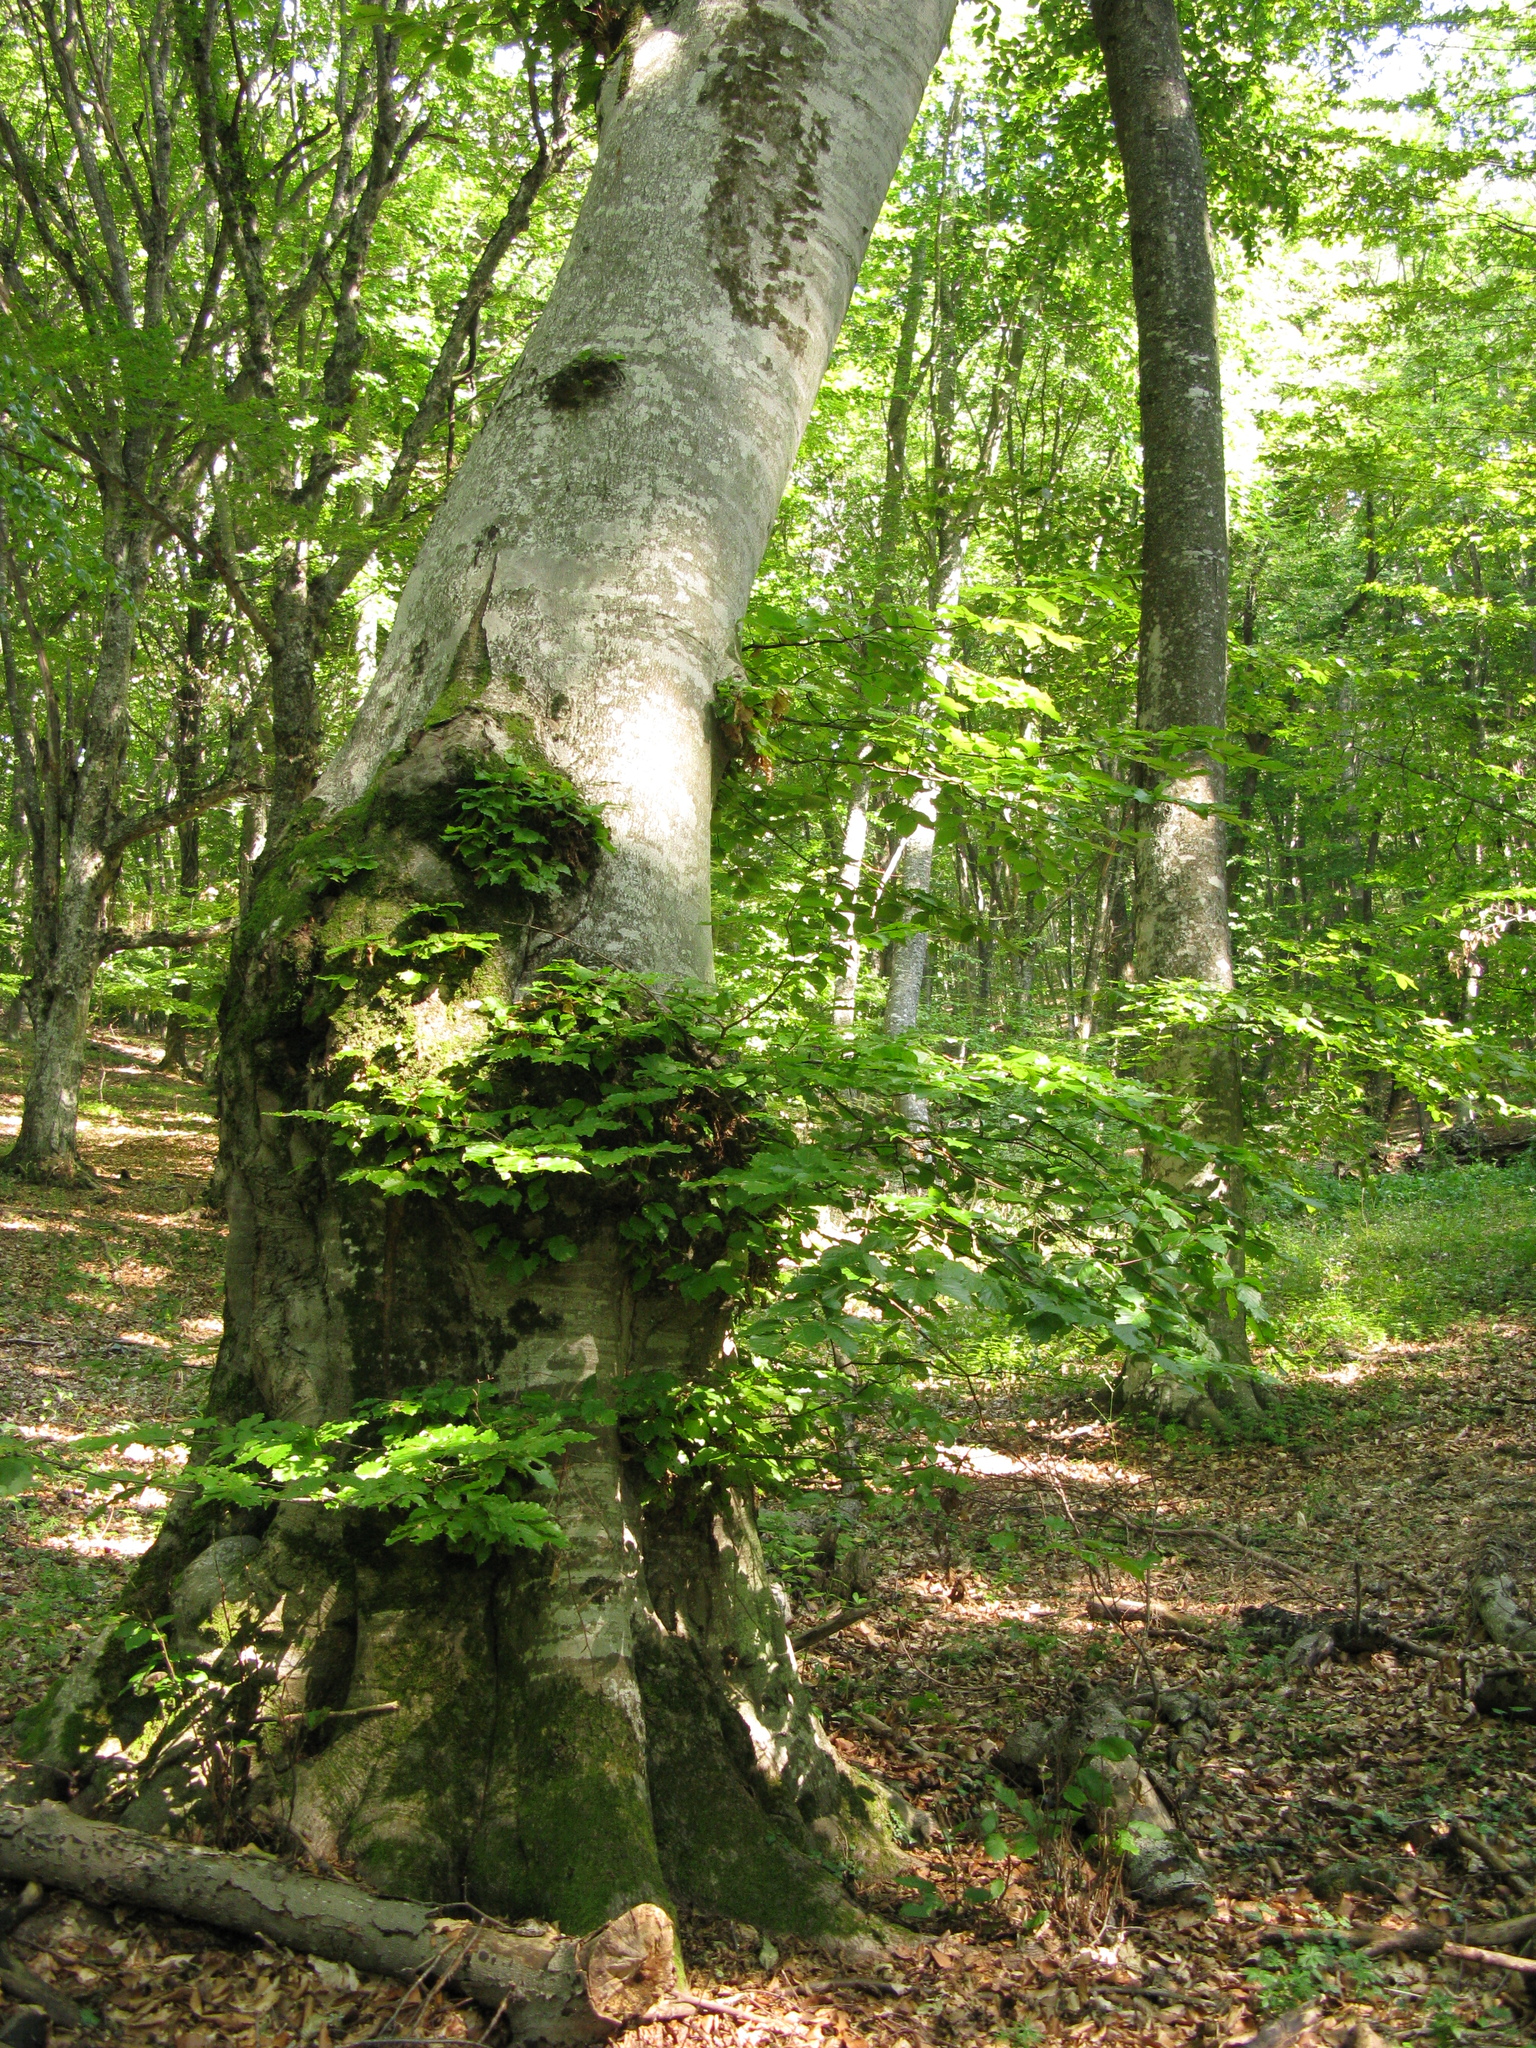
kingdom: Plantae
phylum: Tracheophyta
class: Magnoliopsida
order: Fagales
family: Fagaceae
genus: Fagus
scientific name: Fagus taurica
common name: Crimean beech
